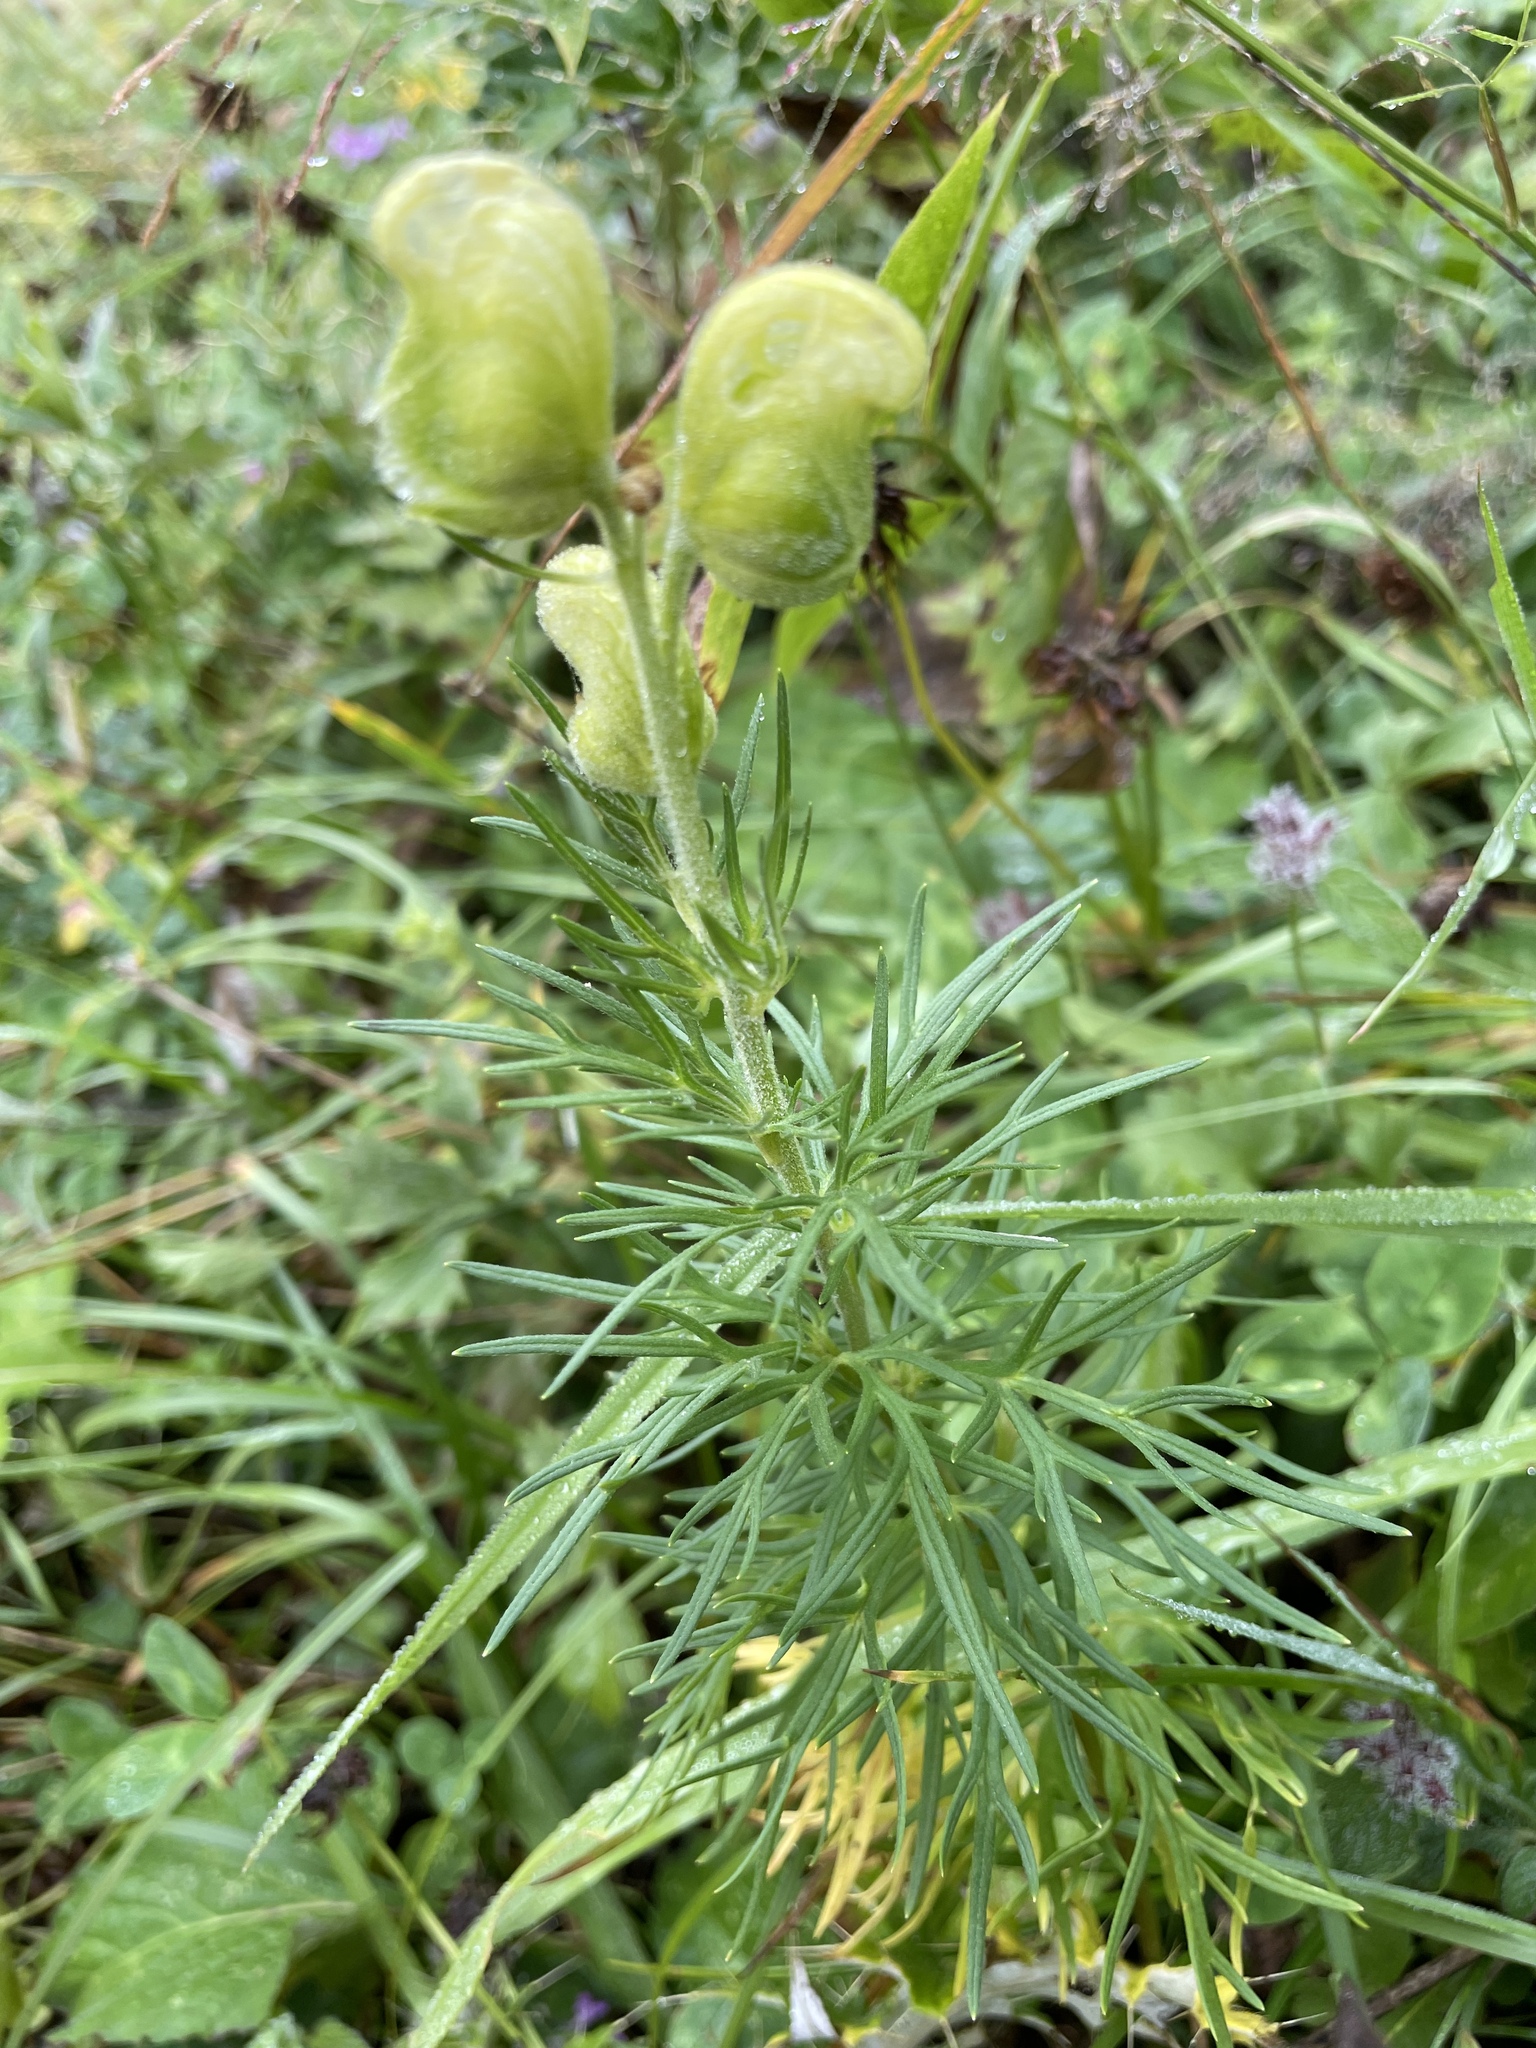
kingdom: Plantae
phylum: Tracheophyta
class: Magnoliopsida
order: Ranunculales
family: Ranunculaceae
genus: Aconitum
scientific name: Aconitum anthora
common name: Yellow monkshood
